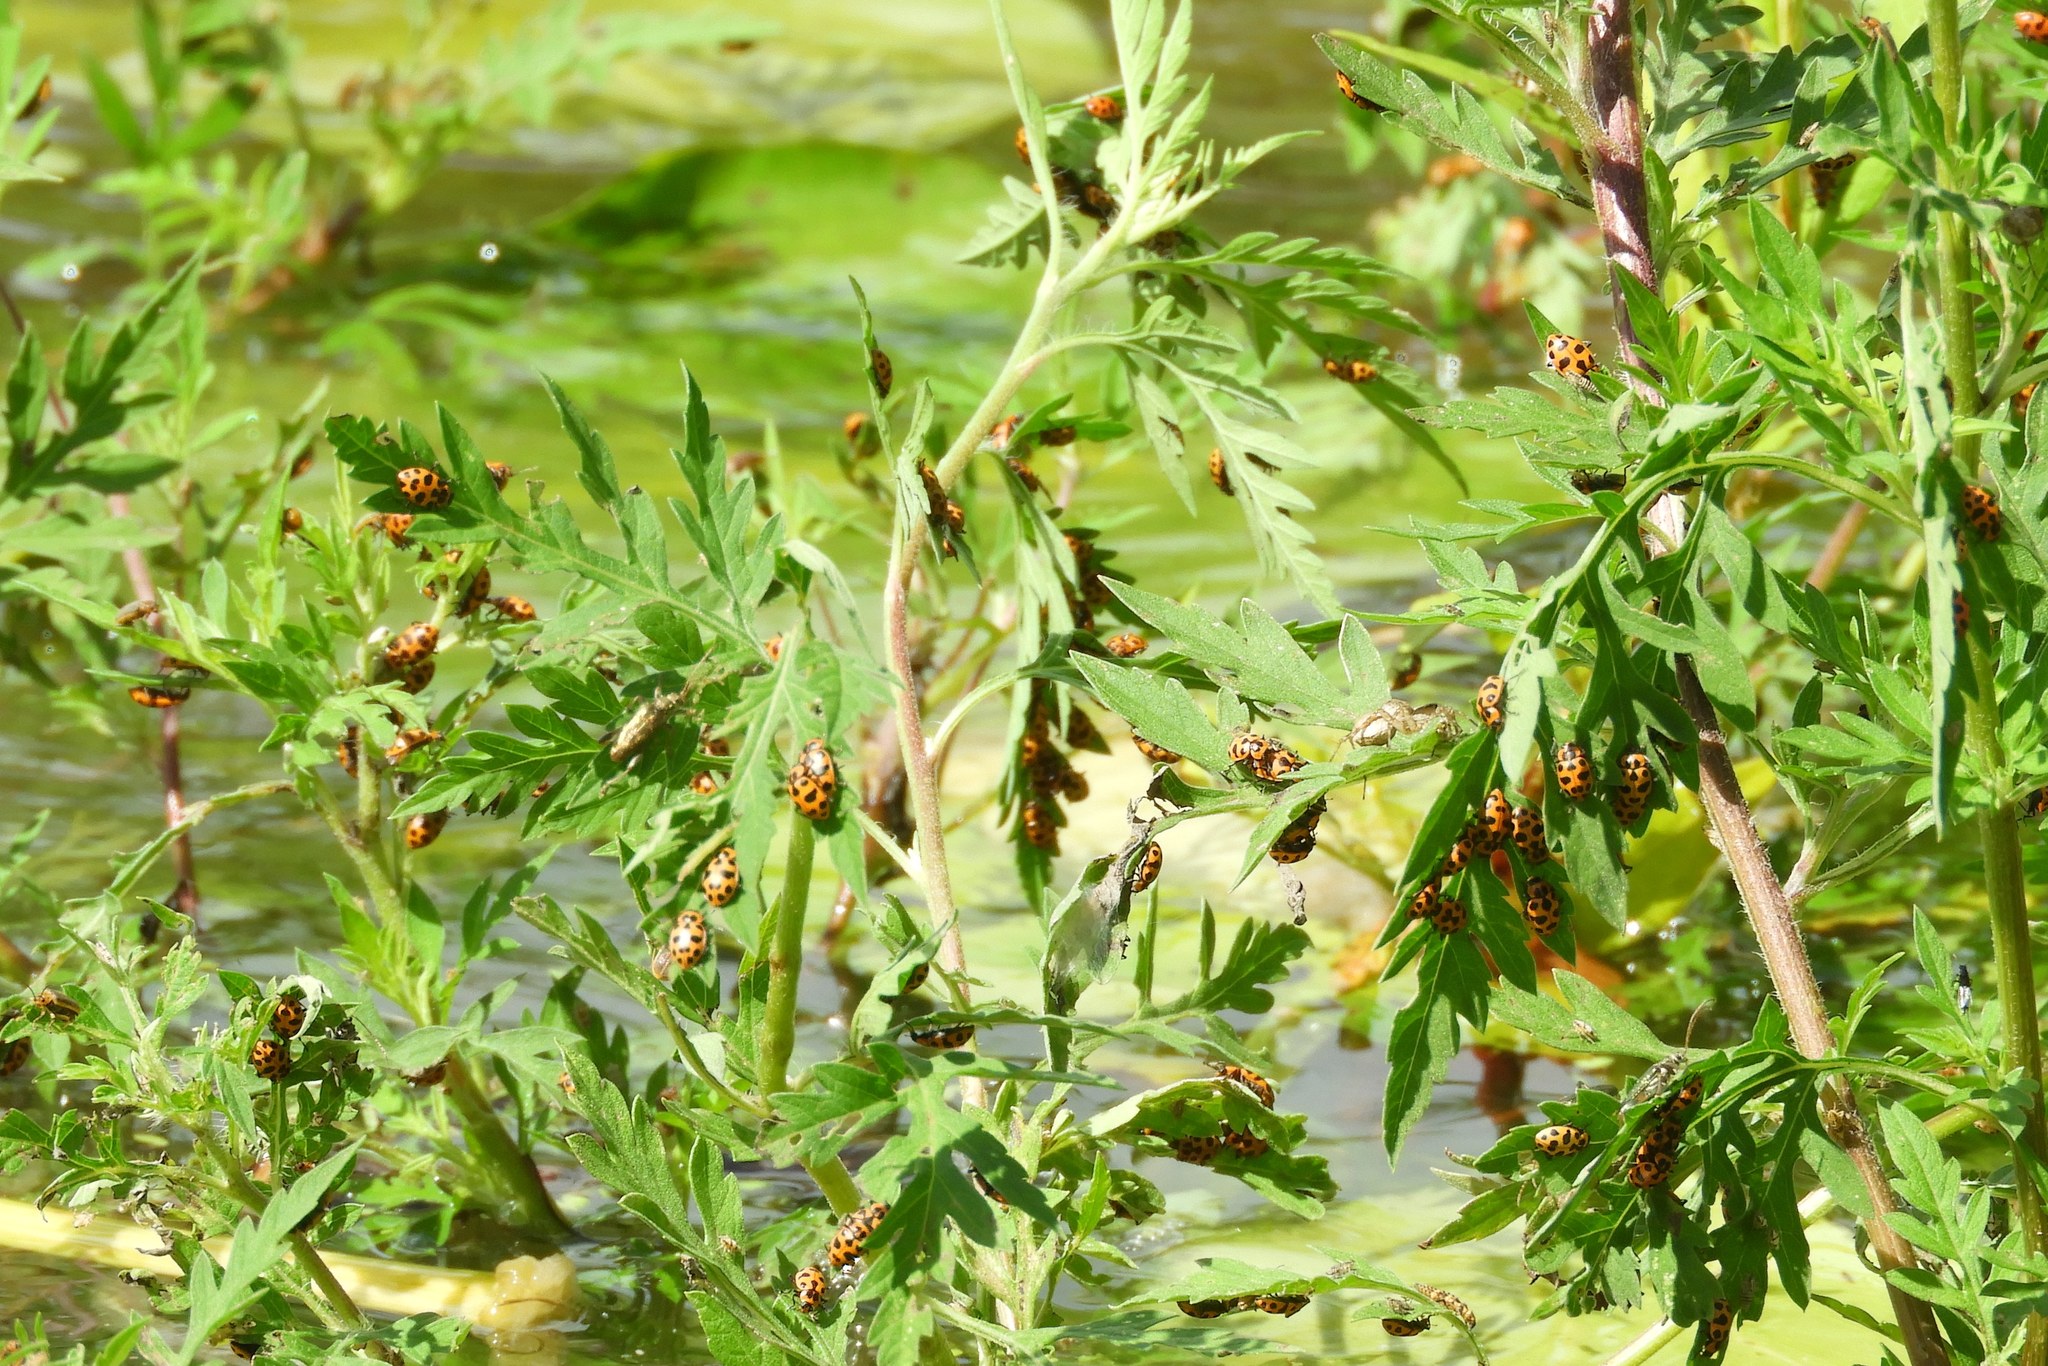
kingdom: Animalia
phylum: Arthropoda
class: Insecta
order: Coleoptera
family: Coccinellidae
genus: Coleomegilla
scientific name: Coleomegilla maculata
